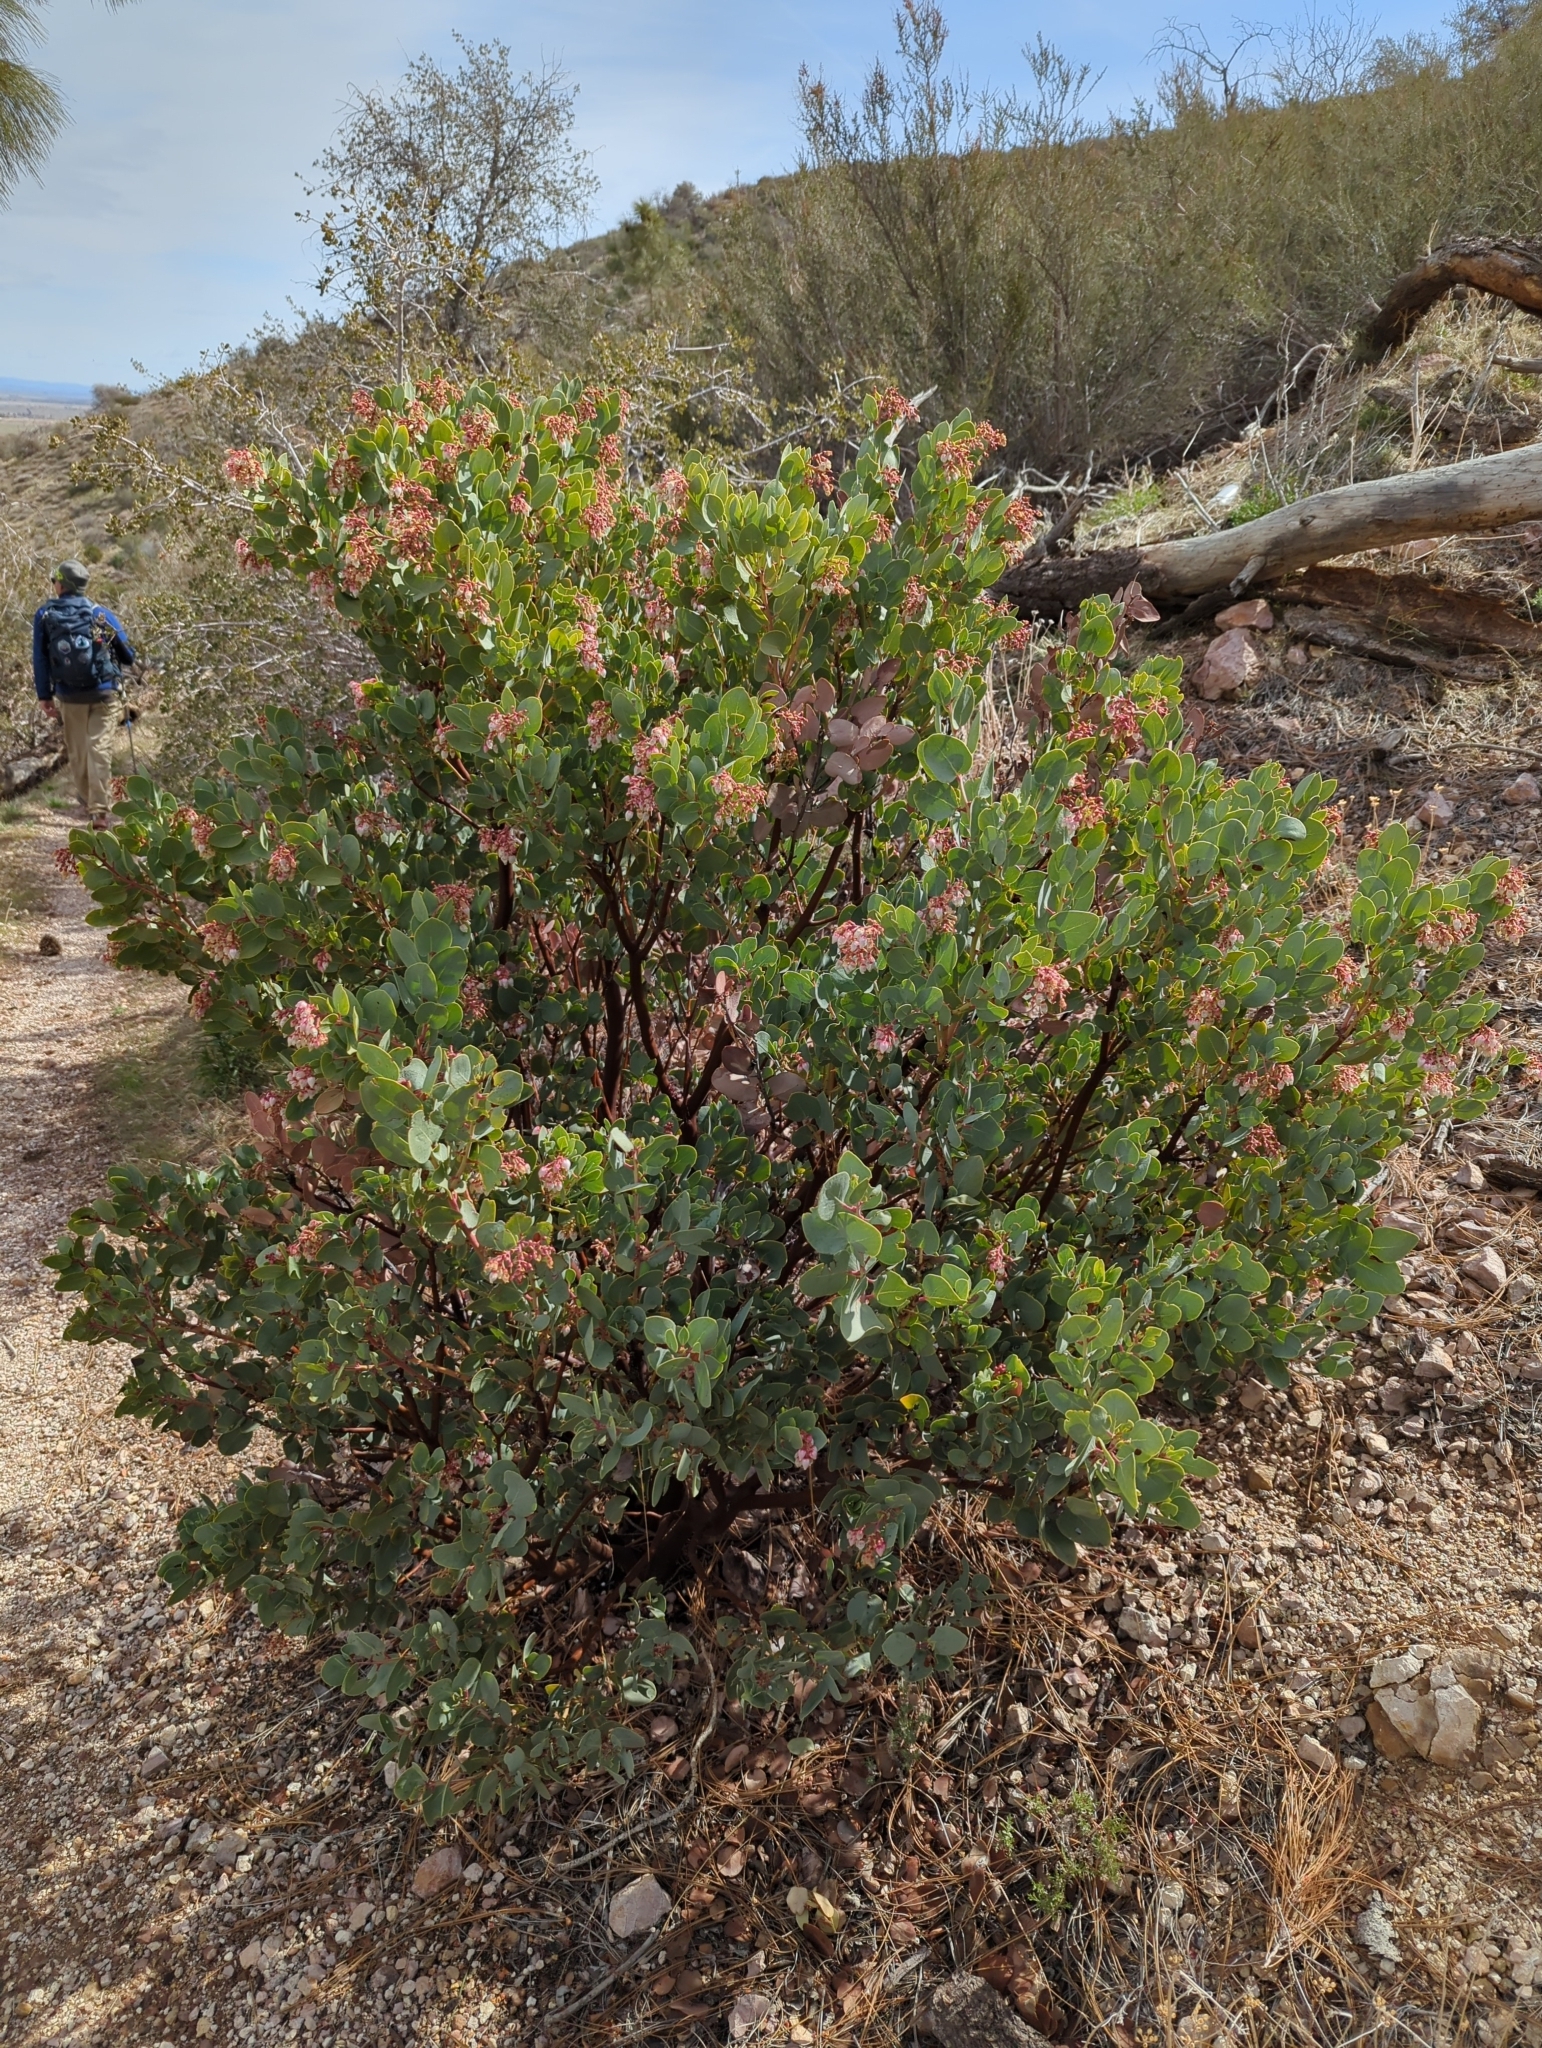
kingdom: Plantae
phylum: Tracheophyta
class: Magnoliopsida
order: Ericales
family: Ericaceae
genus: Arctostaphylos
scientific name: Arctostaphylos glauca
